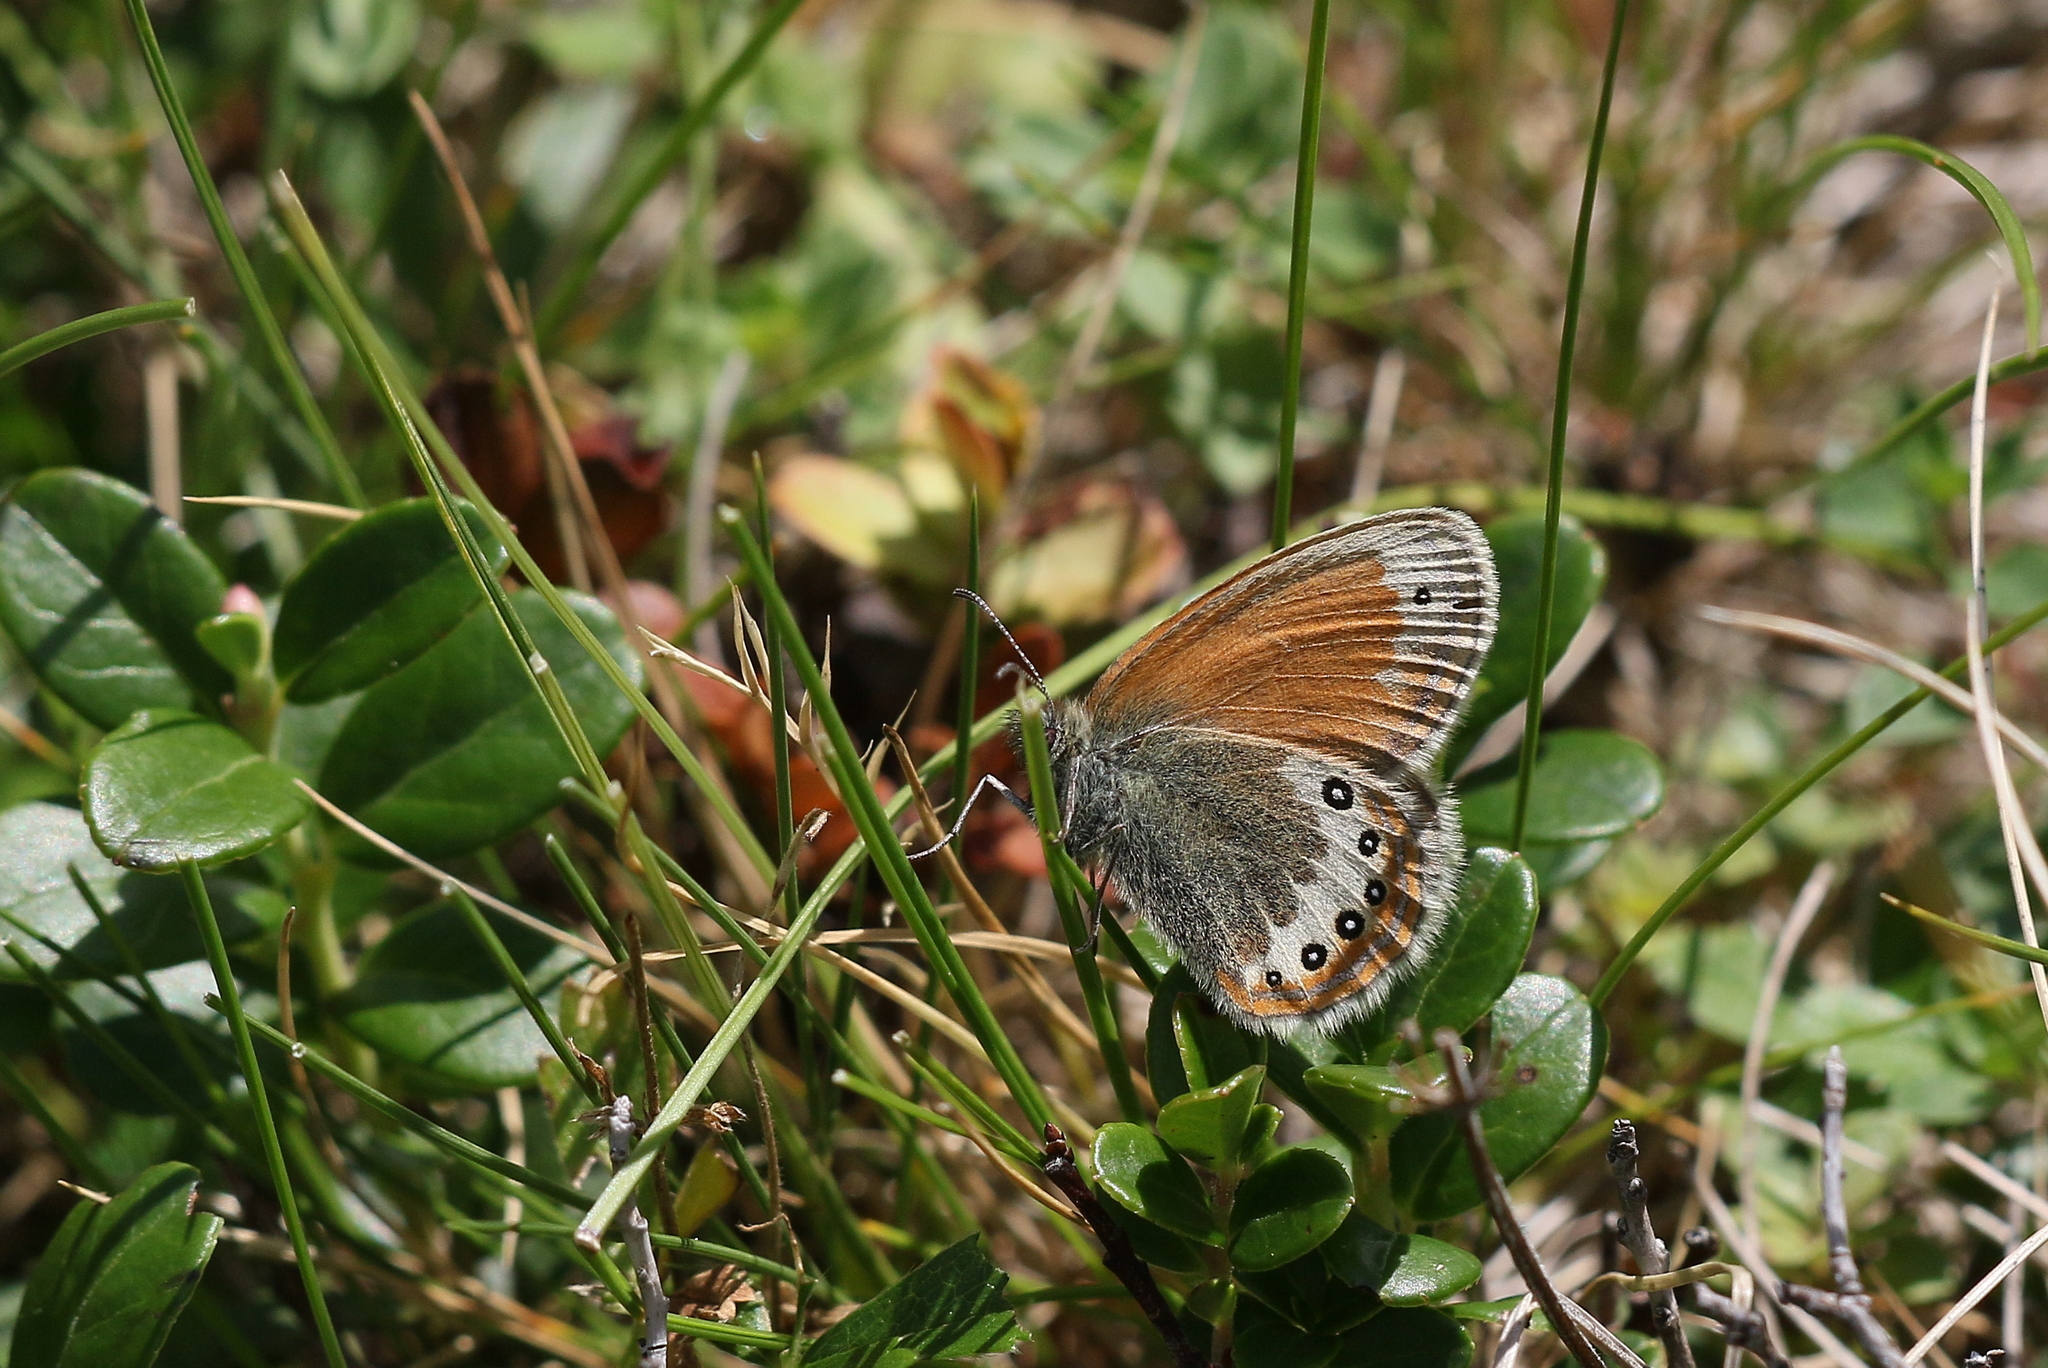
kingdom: Animalia
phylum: Arthropoda
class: Insecta
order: Lepidoptera
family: Nymphalidae
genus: Coenonympha
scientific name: Coenonympha
